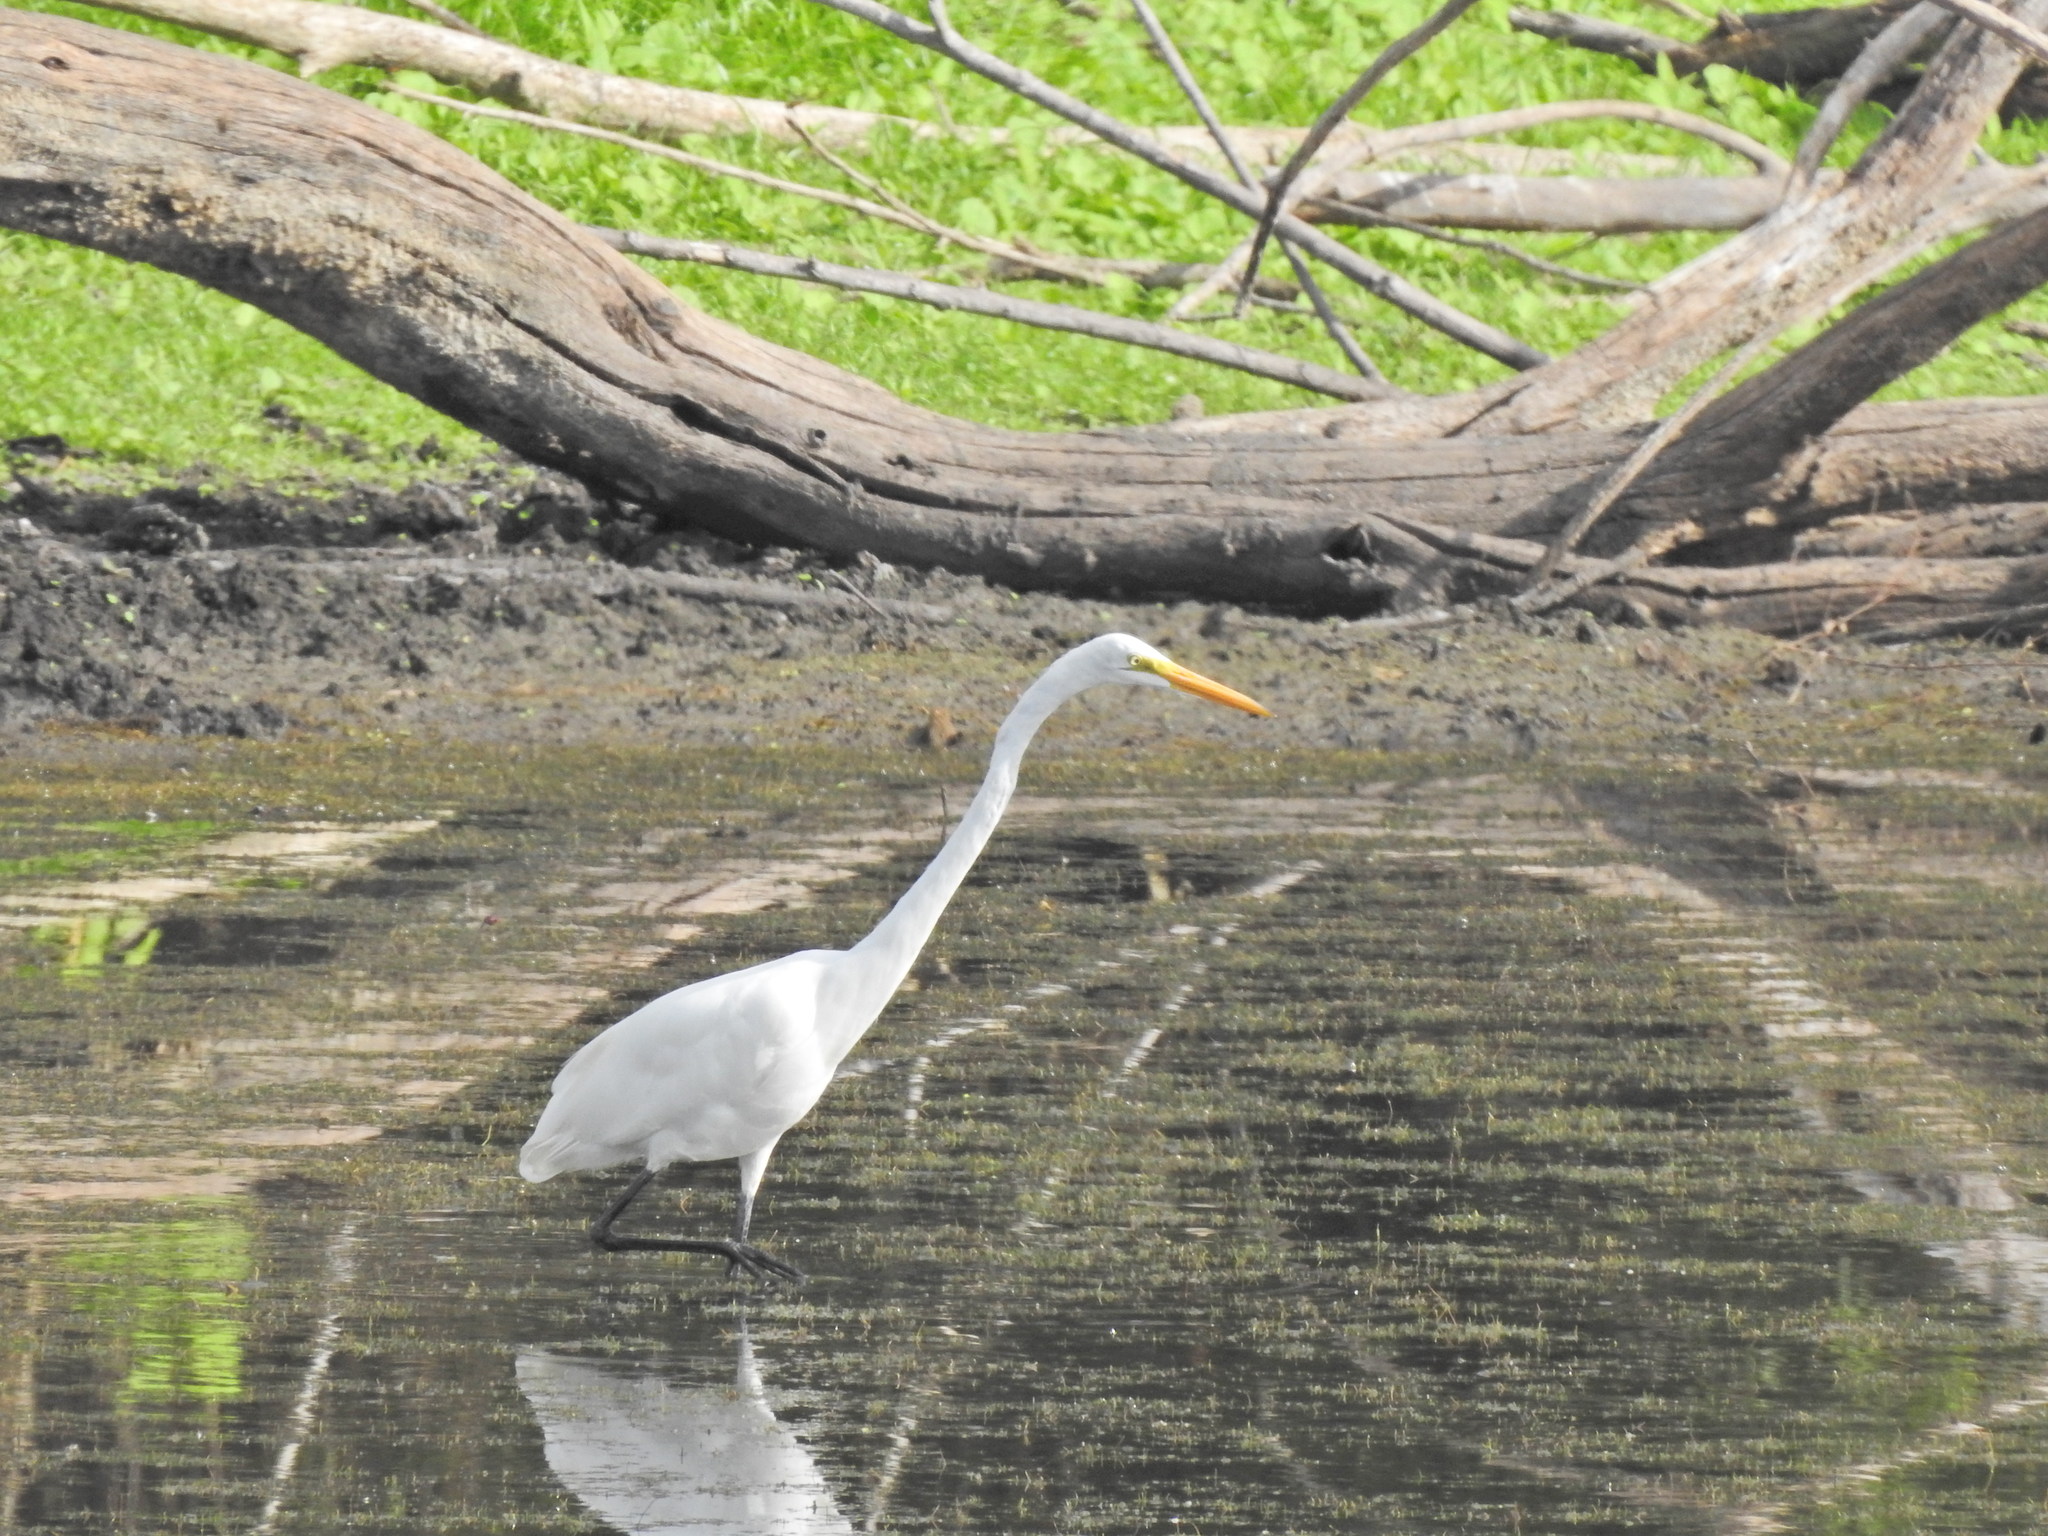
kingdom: Animalia
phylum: Chordata
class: Aves
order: Pelecaniformes
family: Ardeidae
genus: Ardea
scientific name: Ardea alba
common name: Great egret
